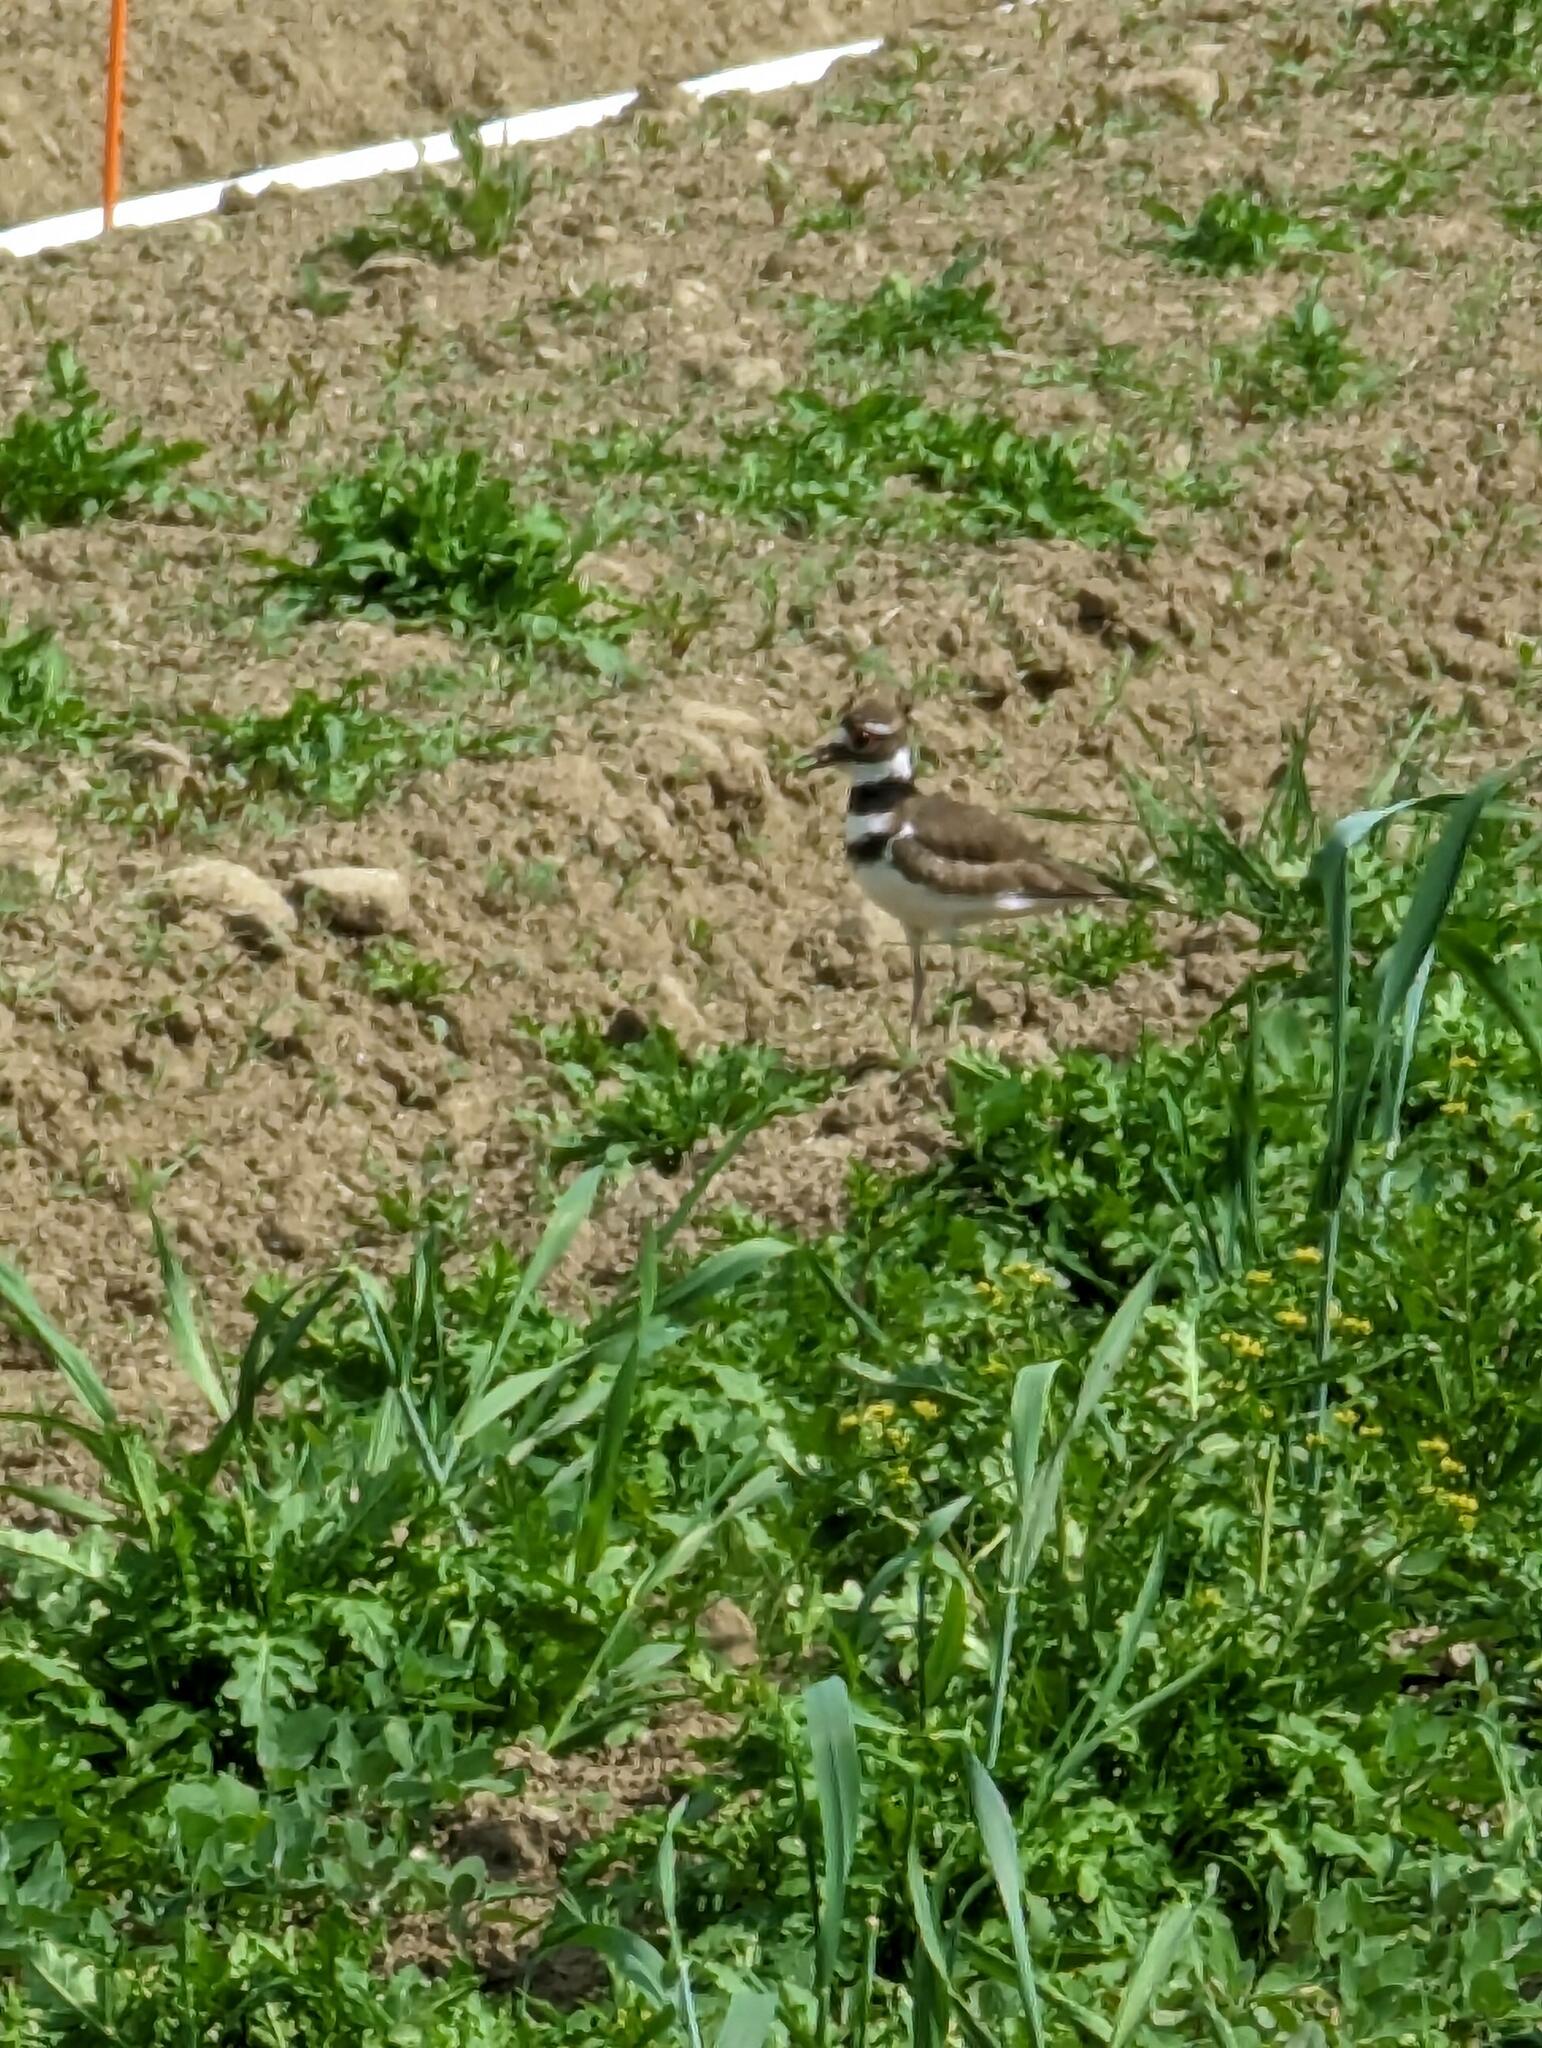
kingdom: Animalia
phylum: Chordata
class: Aves
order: Charadriiformes
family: Charadriidae
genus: Charadrius
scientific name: Charadrius vociferus
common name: Killdeer
